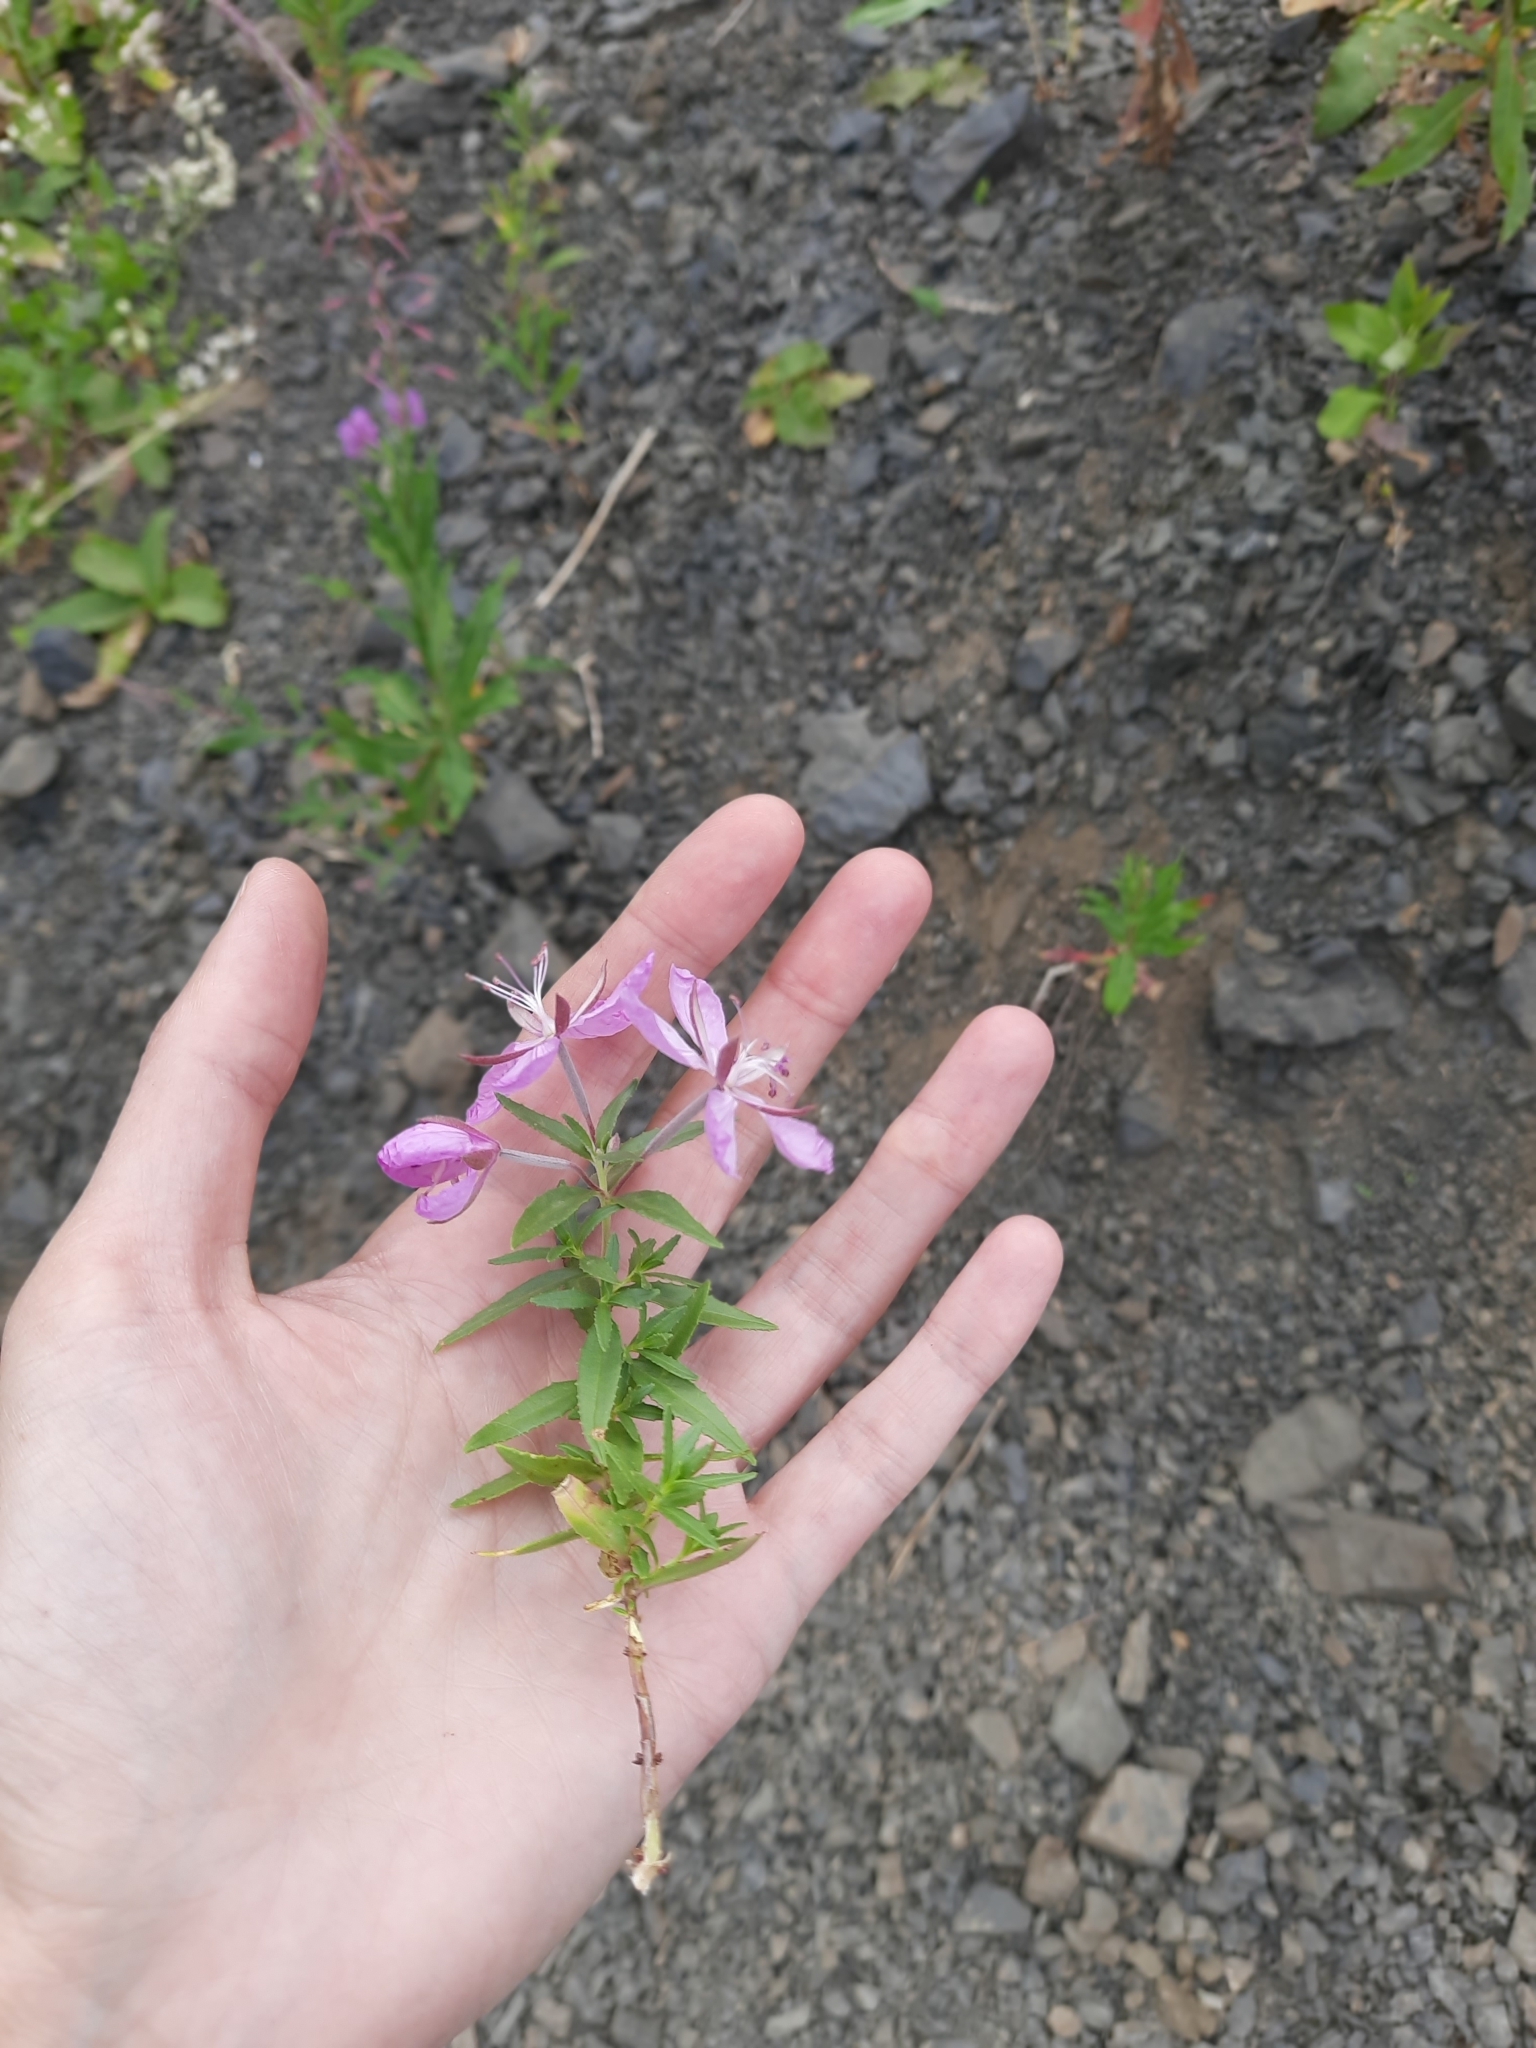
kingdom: Plantae
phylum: Tracheophyta
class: Magnoliopsida
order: Myrtales
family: Onagraceae
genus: Chamaenerion
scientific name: Chamaenerion colchicum
